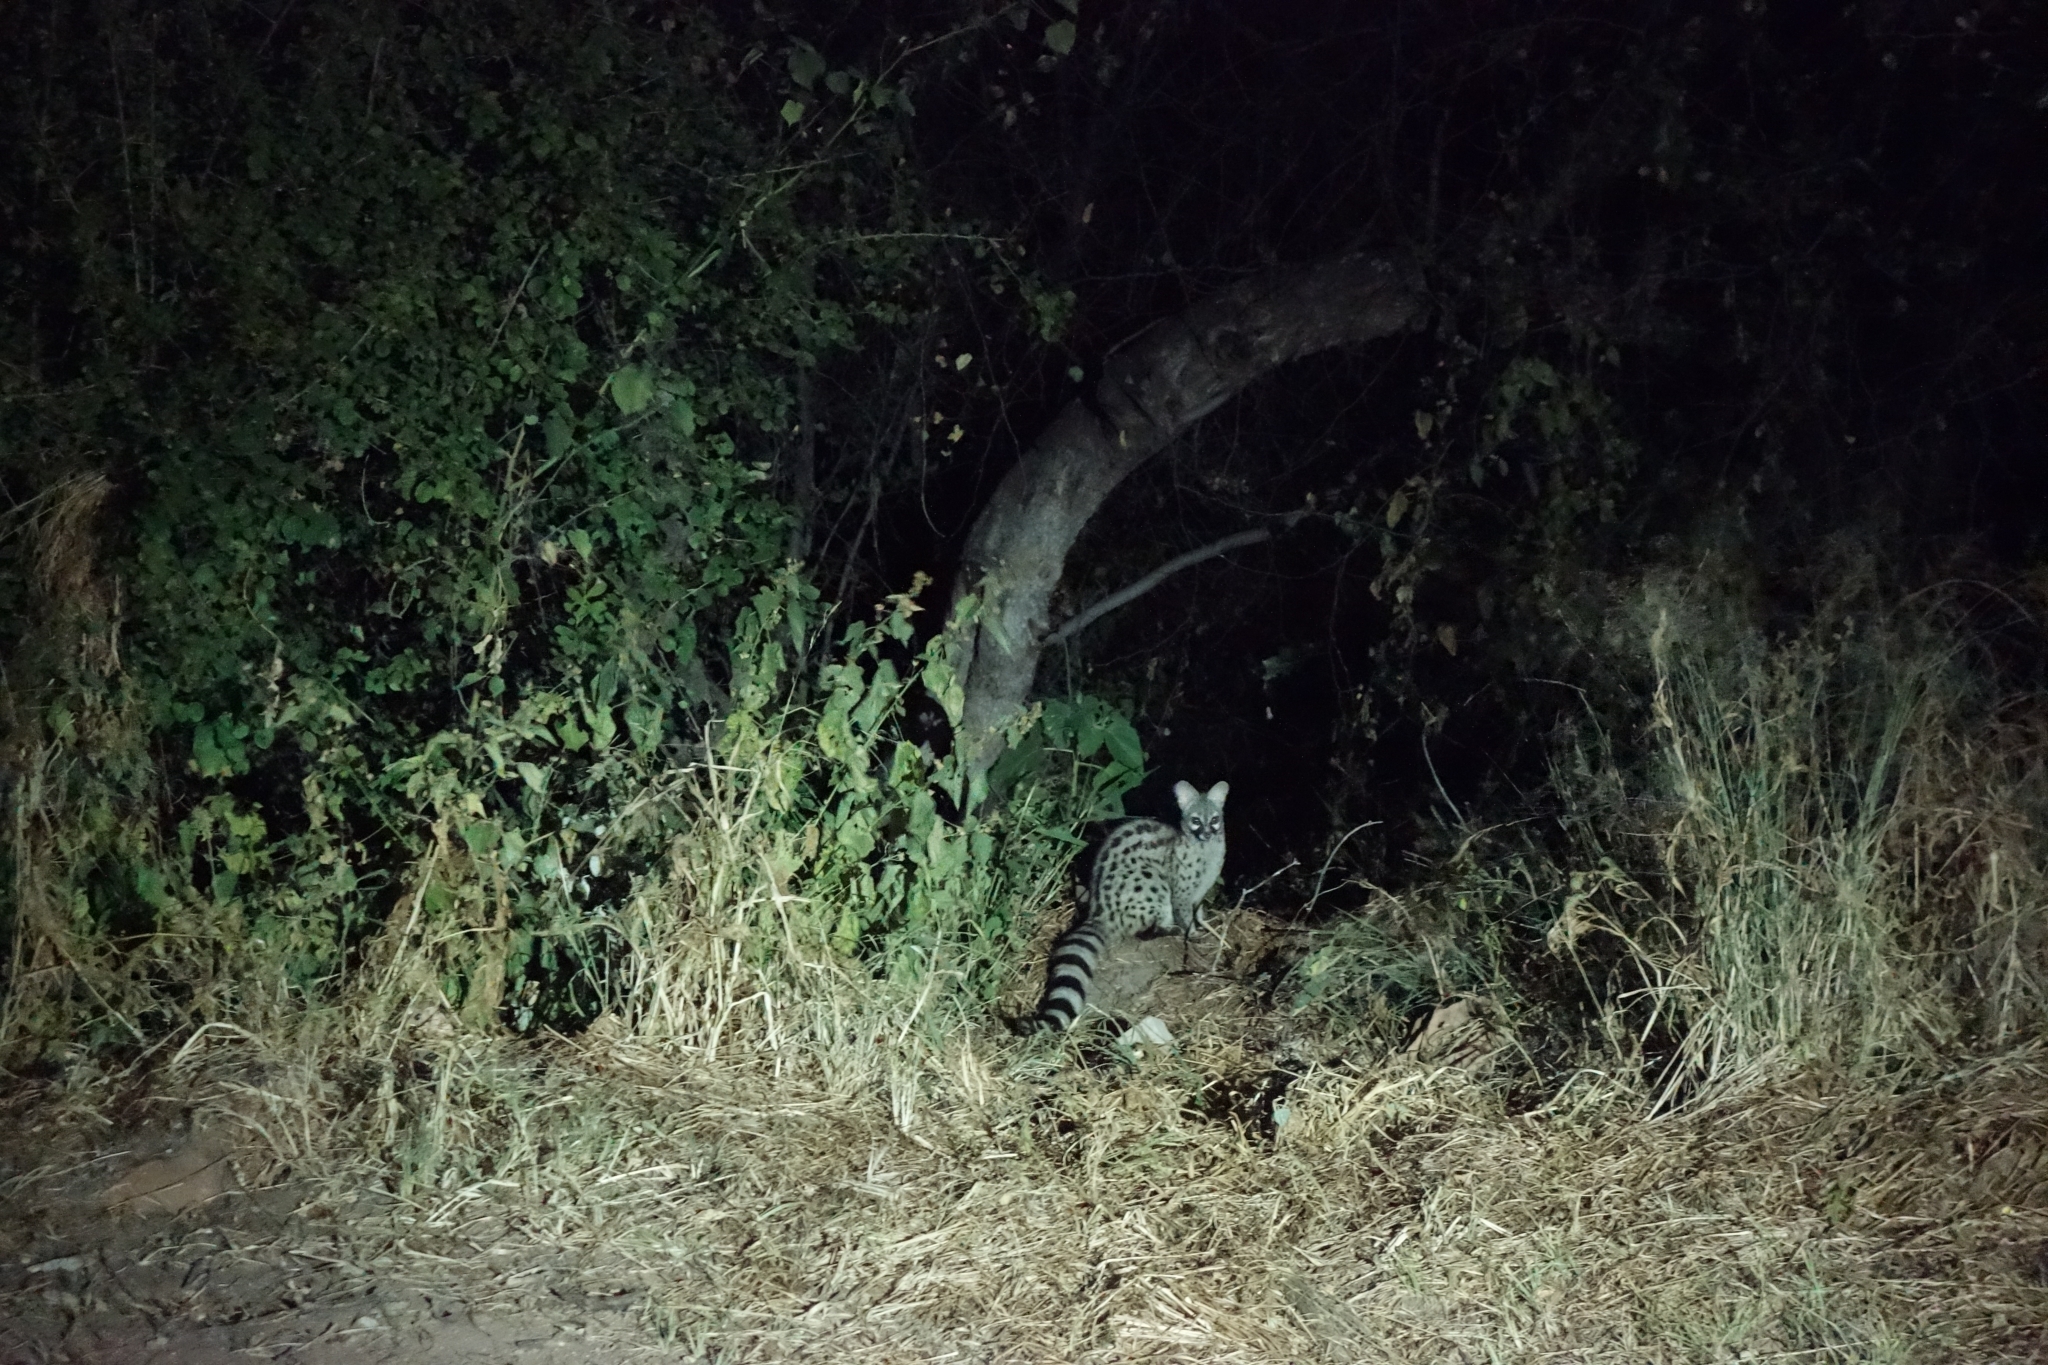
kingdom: Animalia
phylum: Chordata
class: Mammalia
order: Carnivora
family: Viverridae
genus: Genetta
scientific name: Genetta genetta
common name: Common genet
